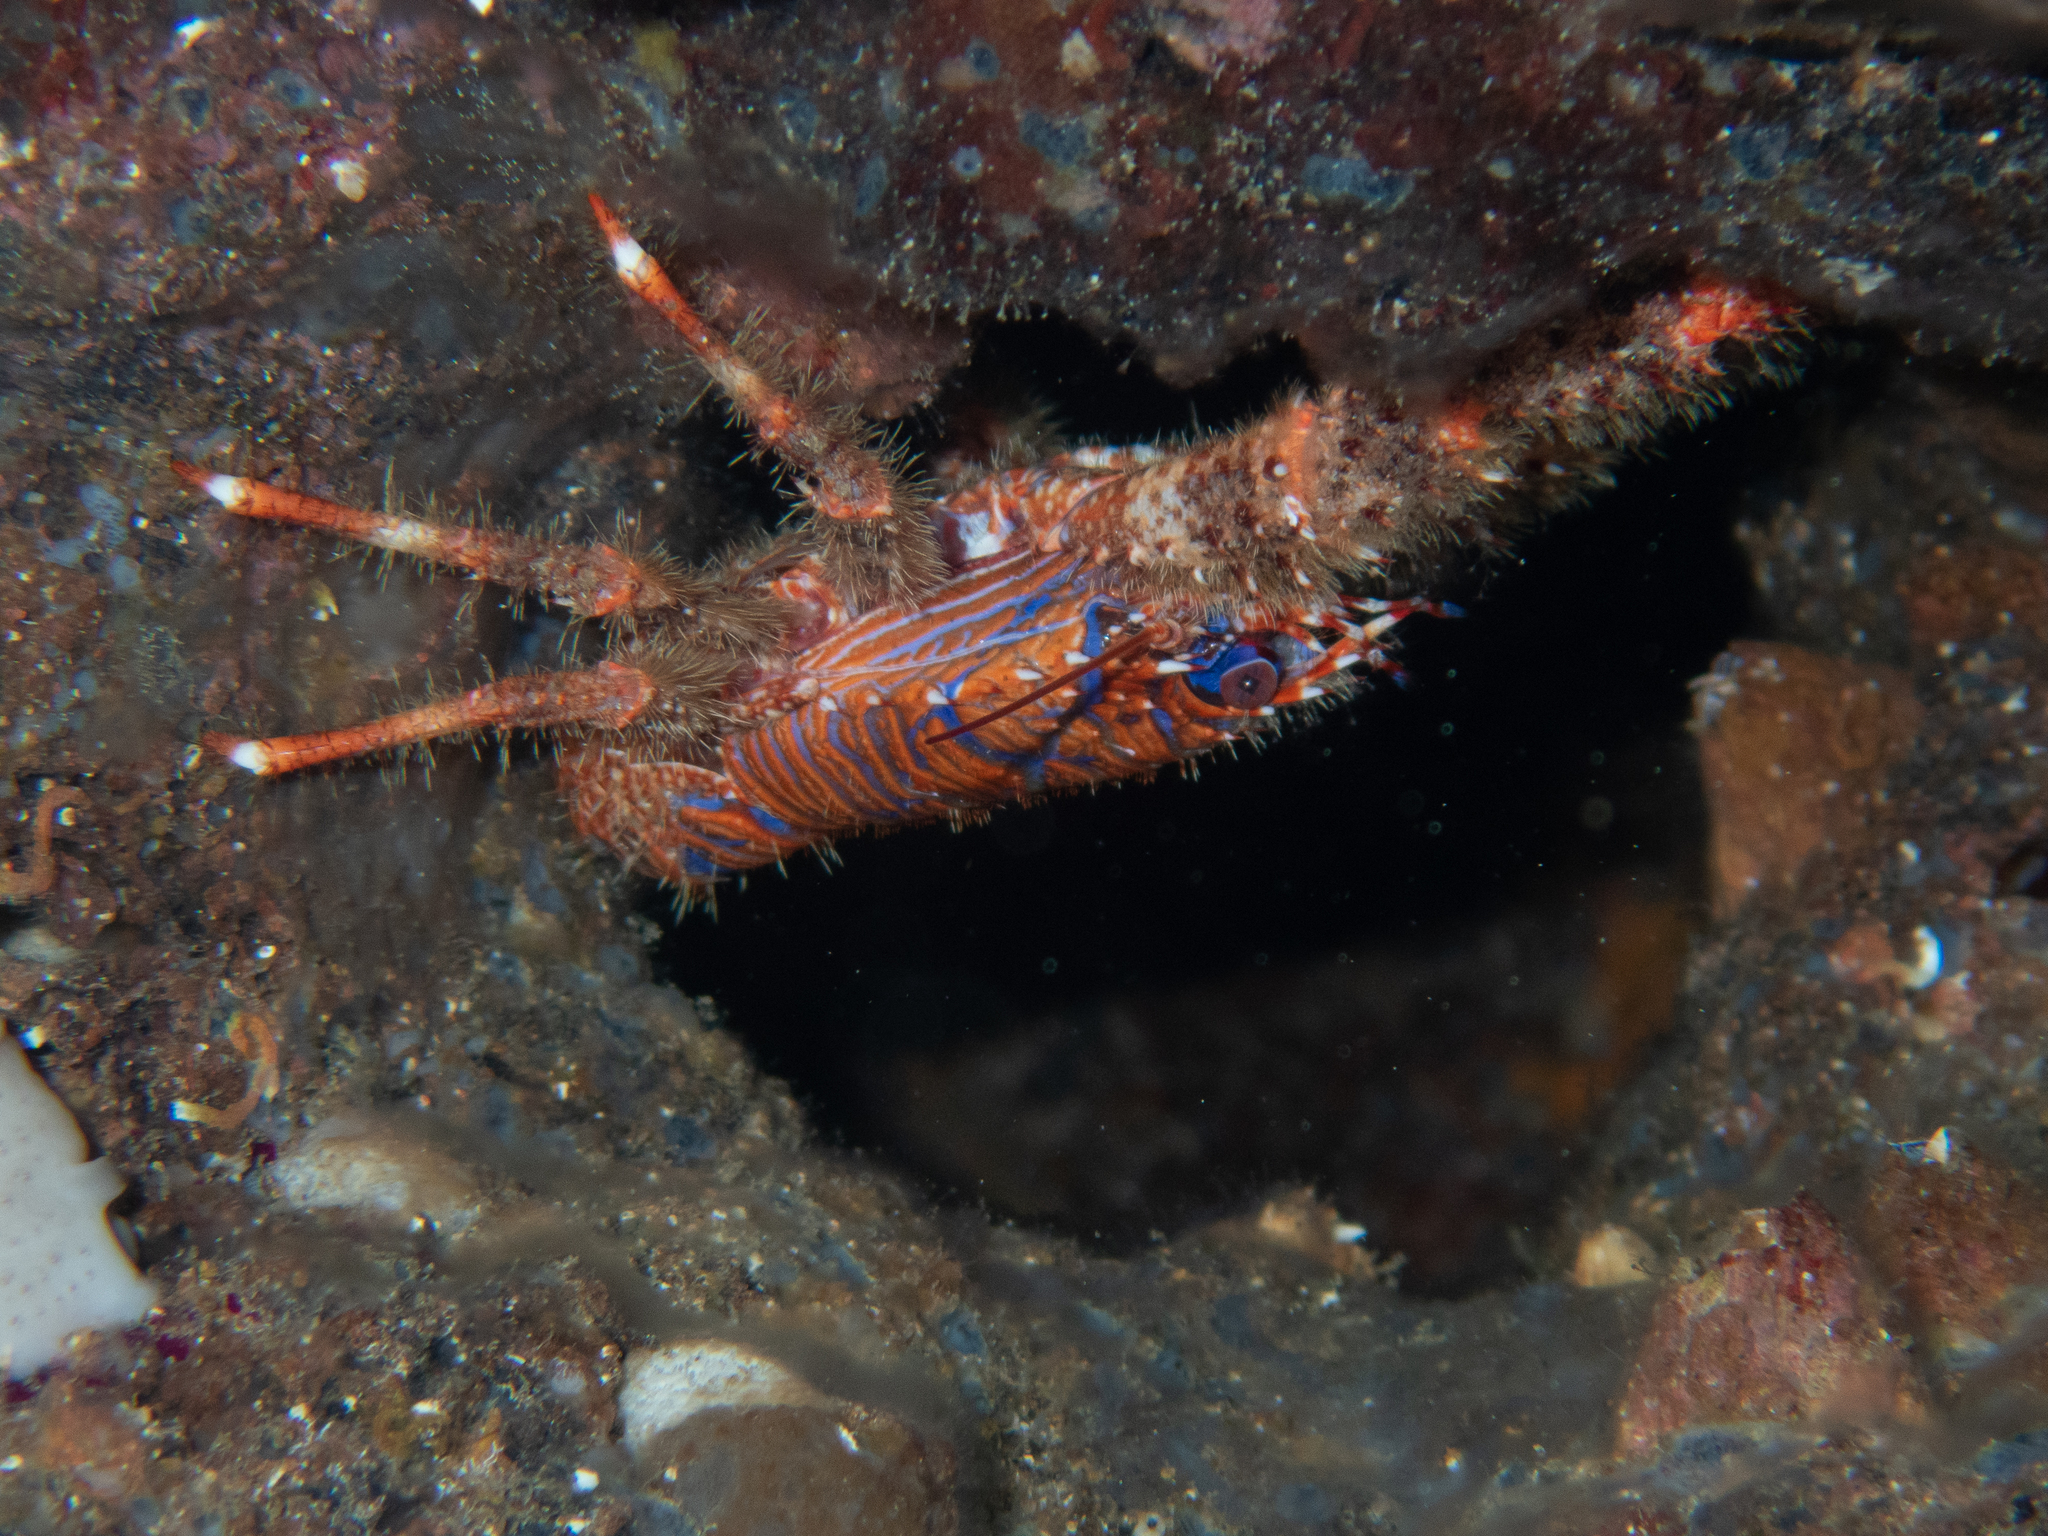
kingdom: Animalia
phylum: Arthropoda
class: Malacostraca
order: Decapoda
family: Galatheidae
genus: Galathea
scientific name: Galathea strigosa
